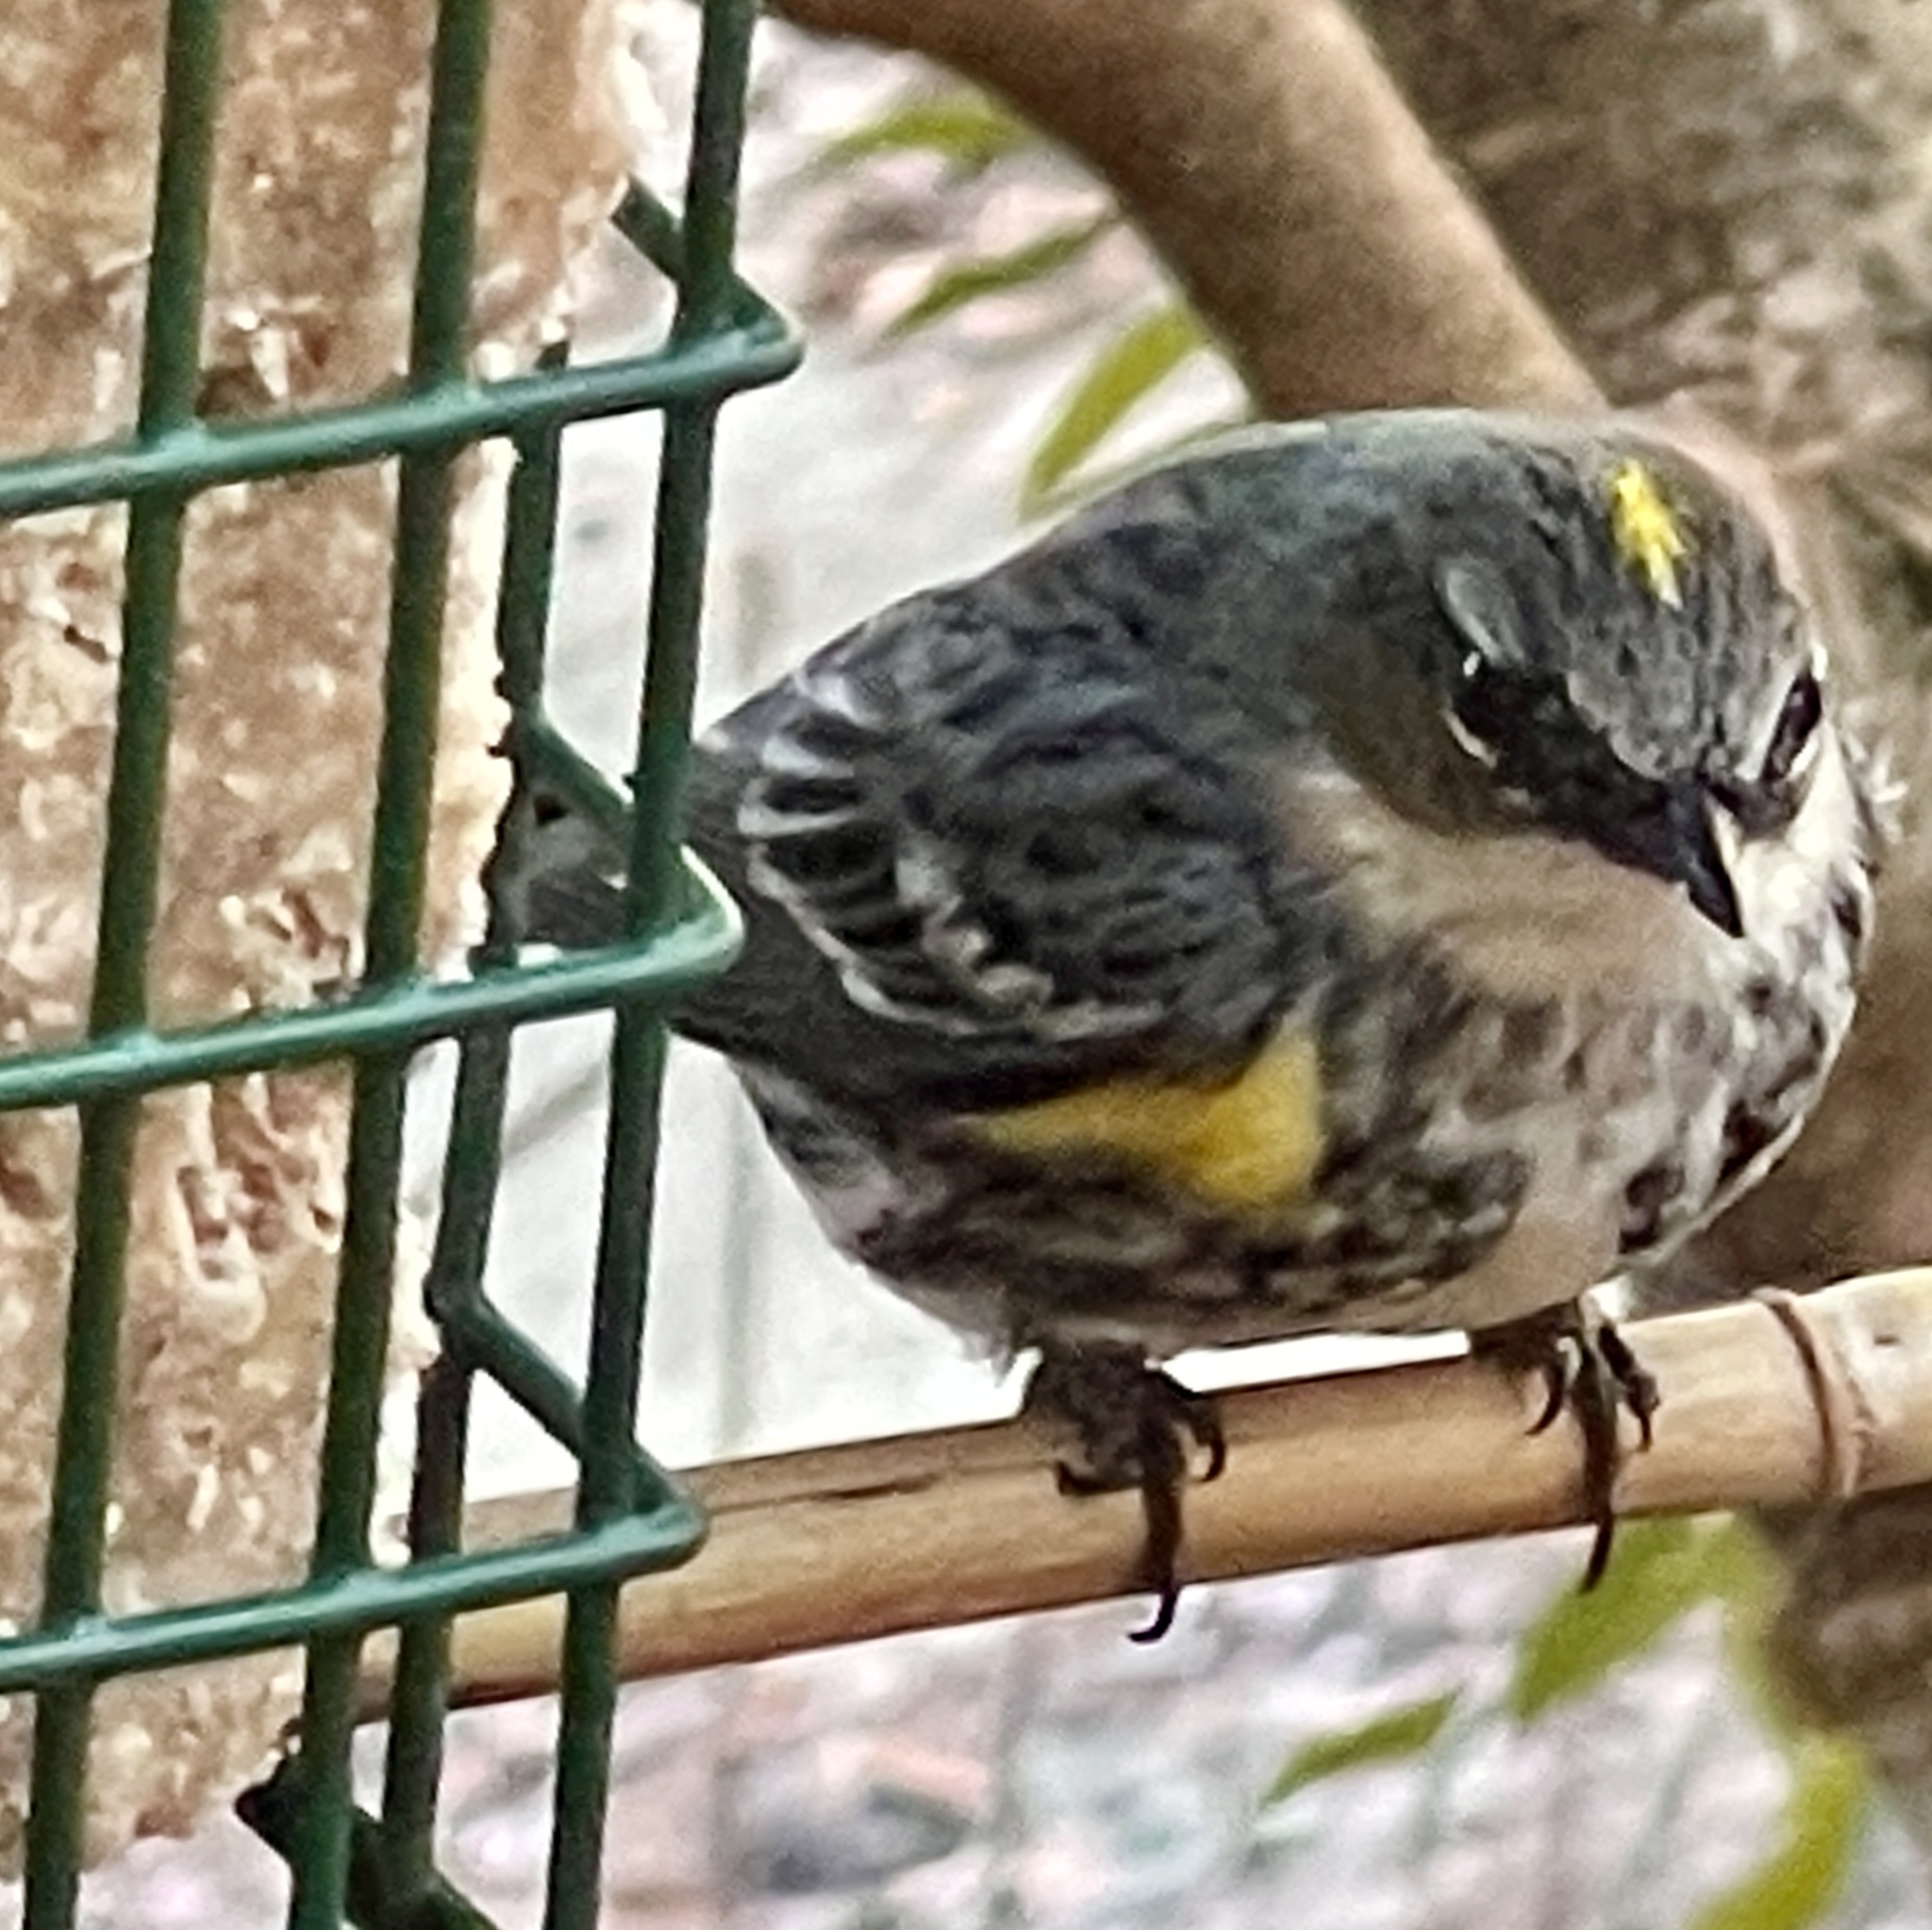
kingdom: Animalia
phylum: Chordata
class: Aves
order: Passeriformes
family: Parulidae
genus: Setophaga
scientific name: Setophaga coronata
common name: Myrtle warbler
